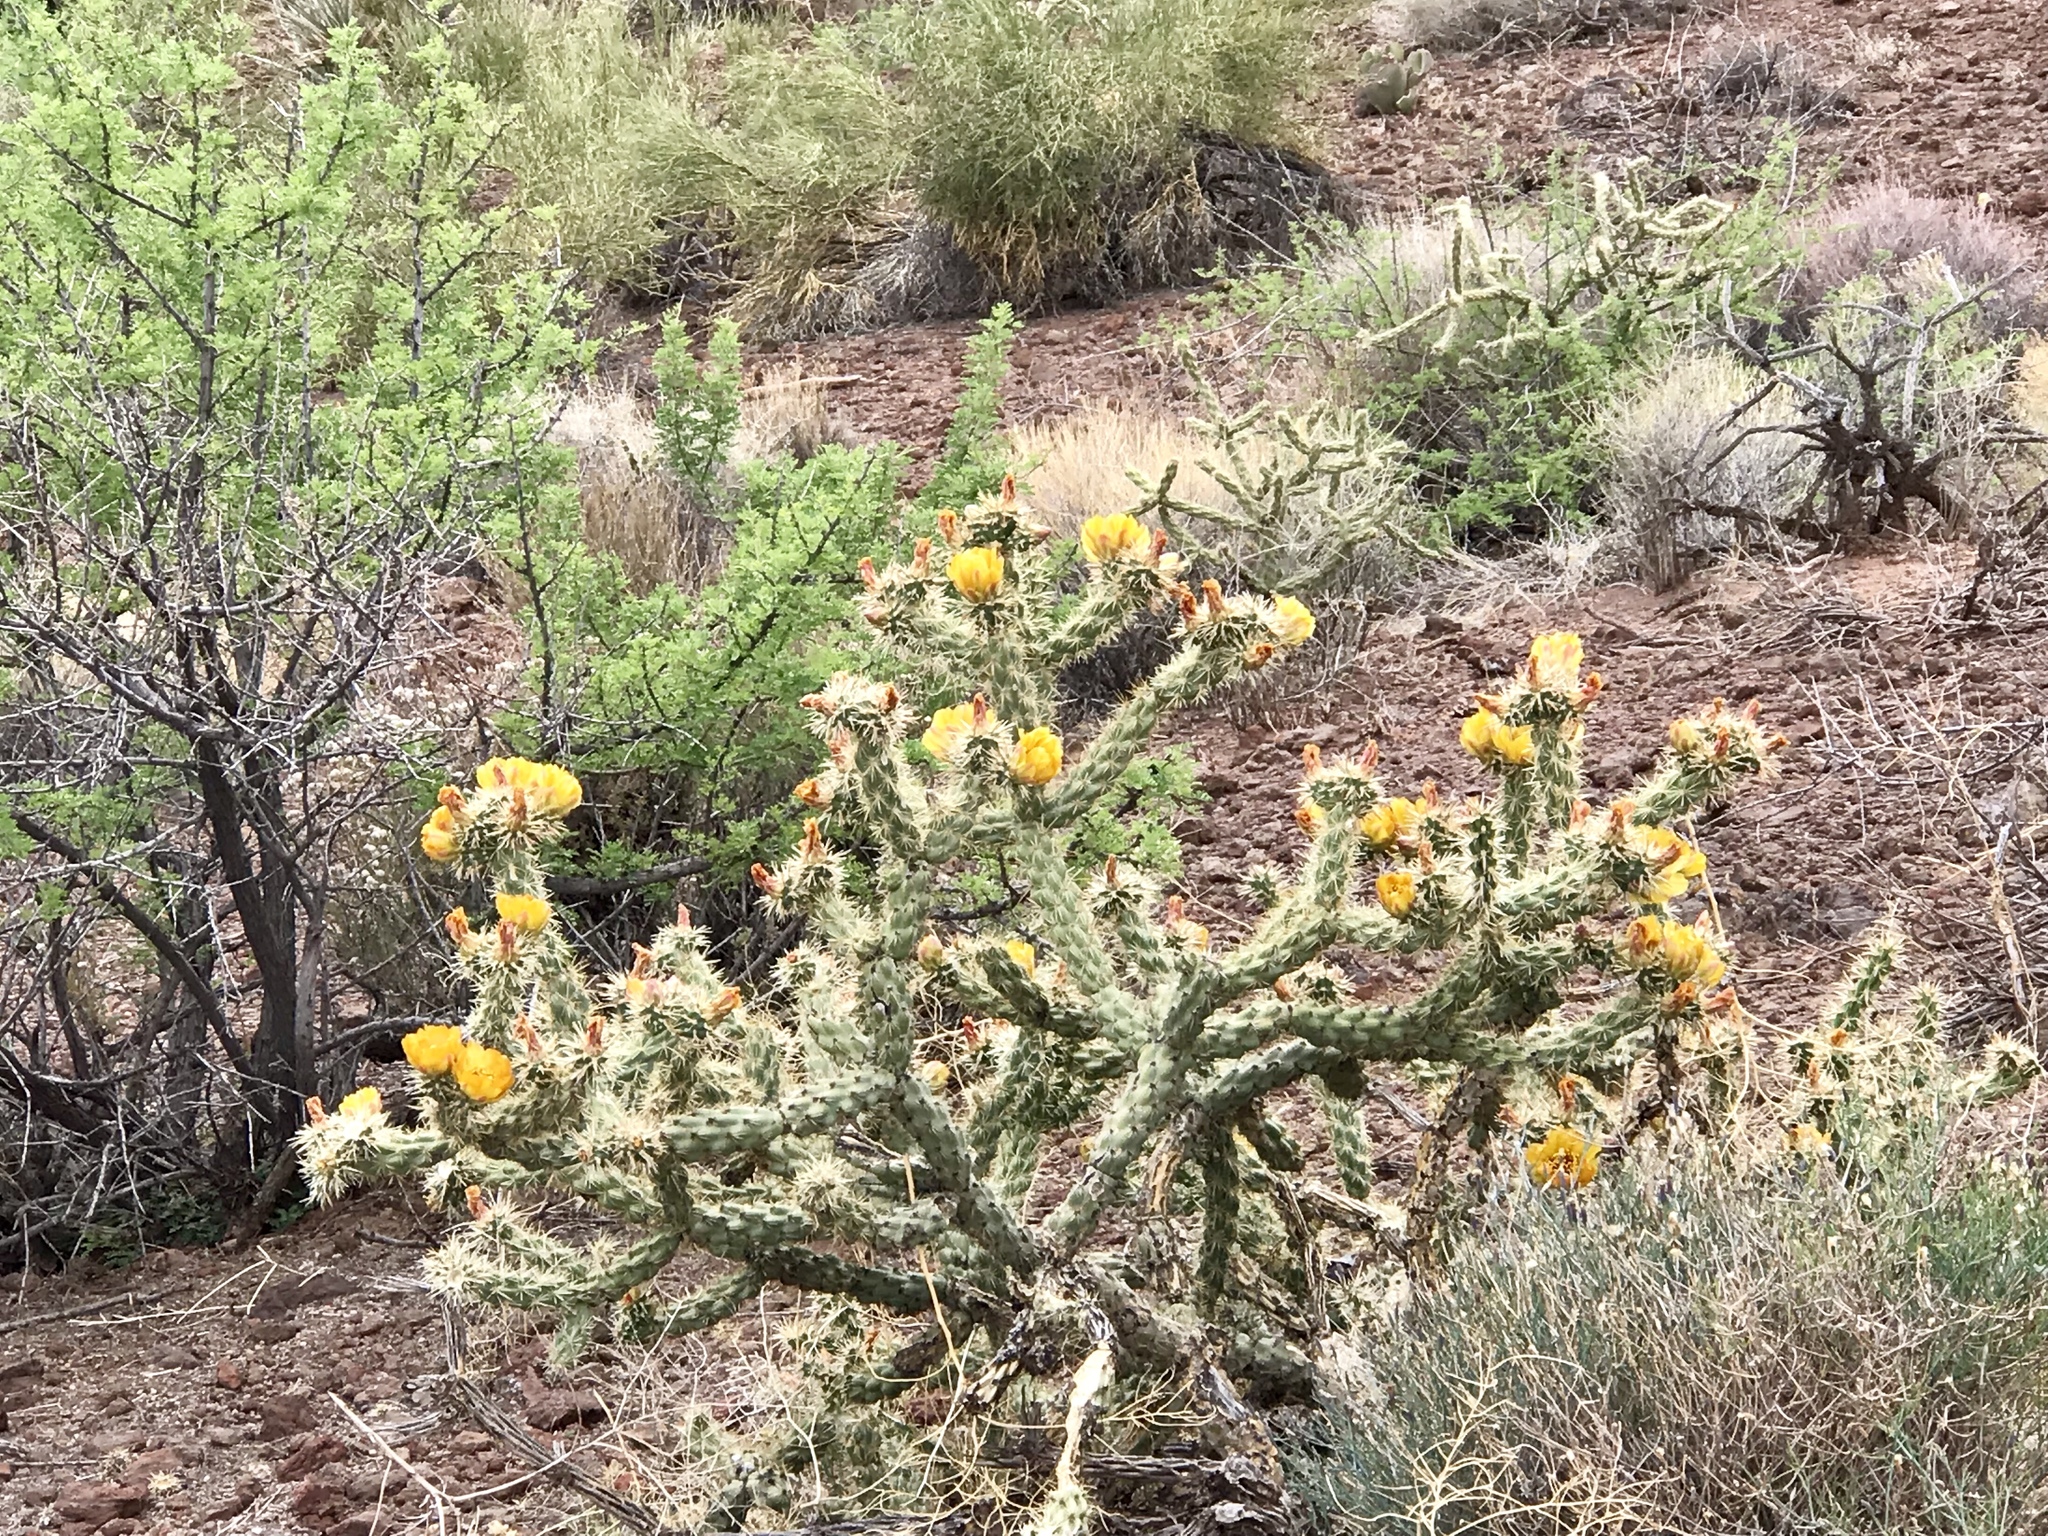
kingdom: Plantae
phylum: Tracheophyta
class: Magnoliopsida
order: Caryophyllales
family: Cactaceae
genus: Cylindropuntia
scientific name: Cylindropuntia acanthocarpa
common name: Buckhorn cholla
